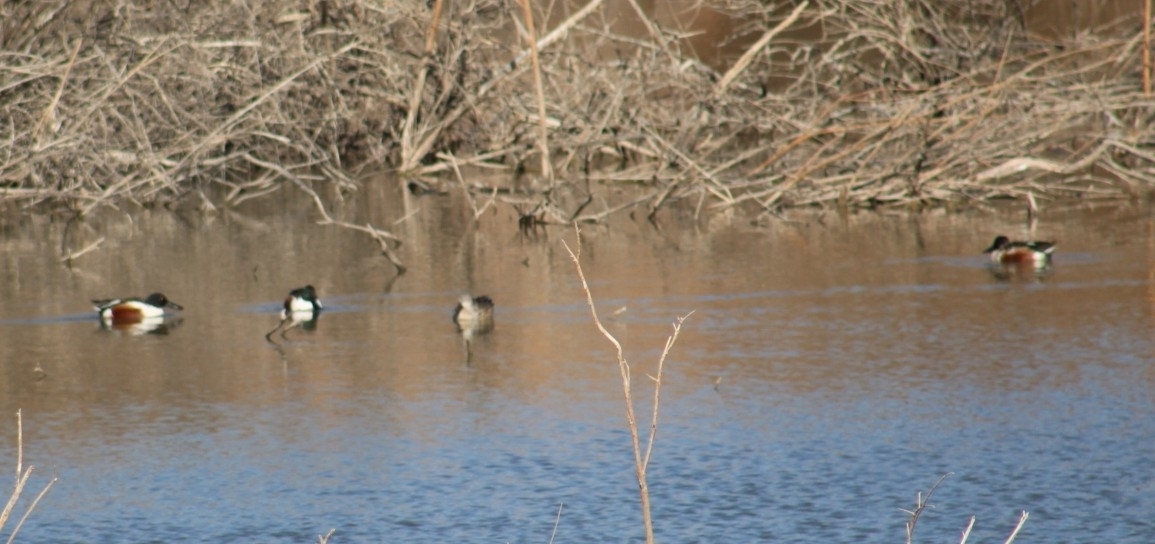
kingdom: Animalia
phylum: Chordata
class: Aves
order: Anseriformes
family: Anatidae
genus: Spatula
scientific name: Spatula clypeata
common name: Northern shoveler
